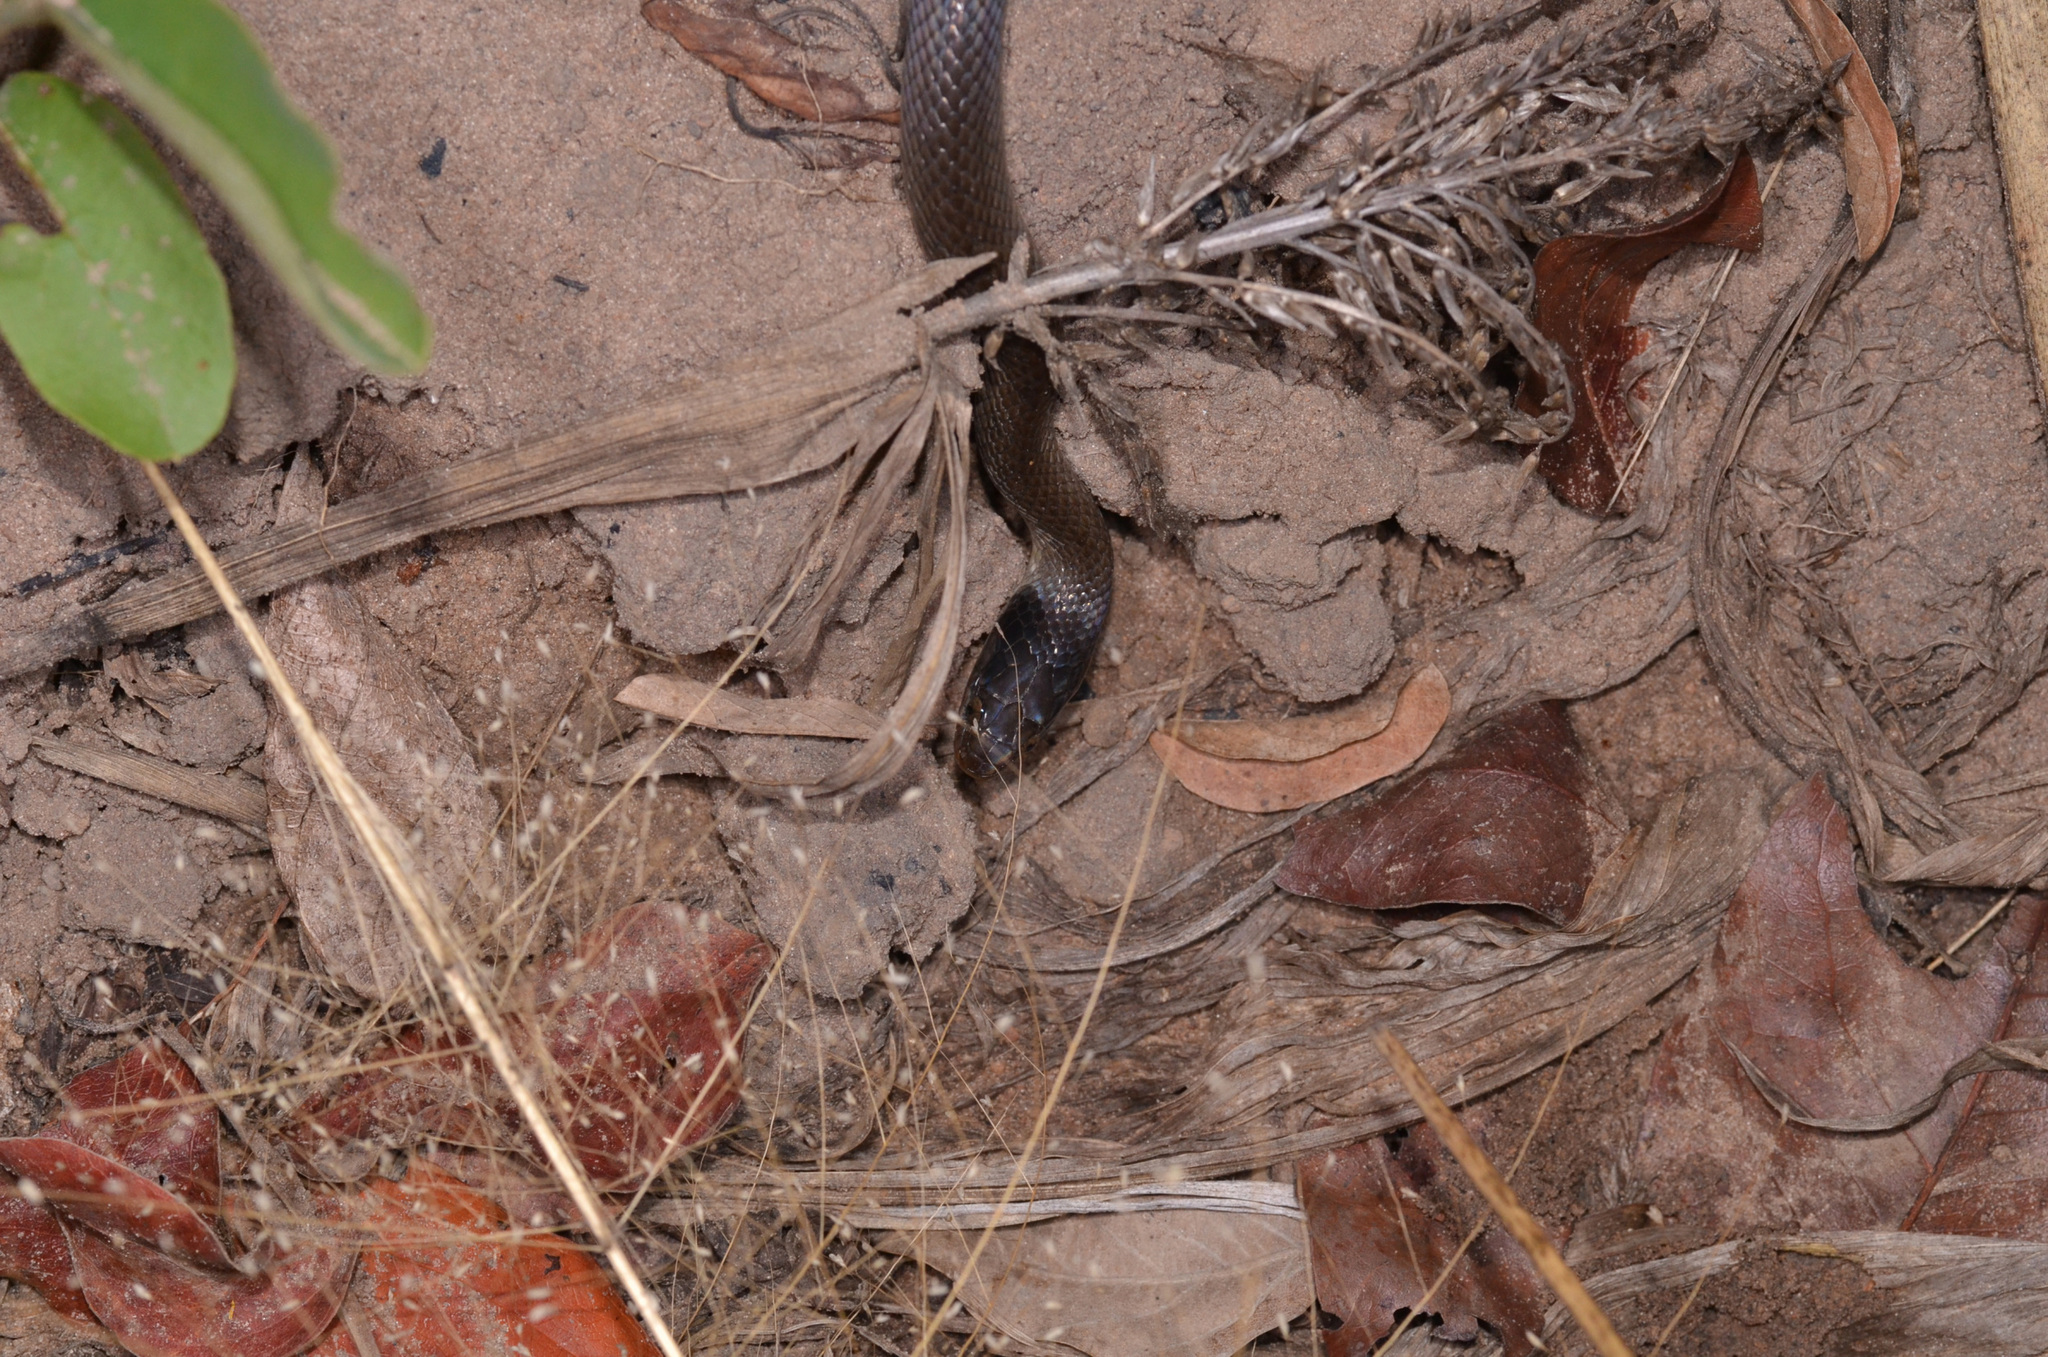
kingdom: Animalia
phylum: Chordata
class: Squamata
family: Colubridae
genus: Crotaphopeltis
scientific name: Crotaphopeltis hotamboeia
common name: Red-lipped snake
